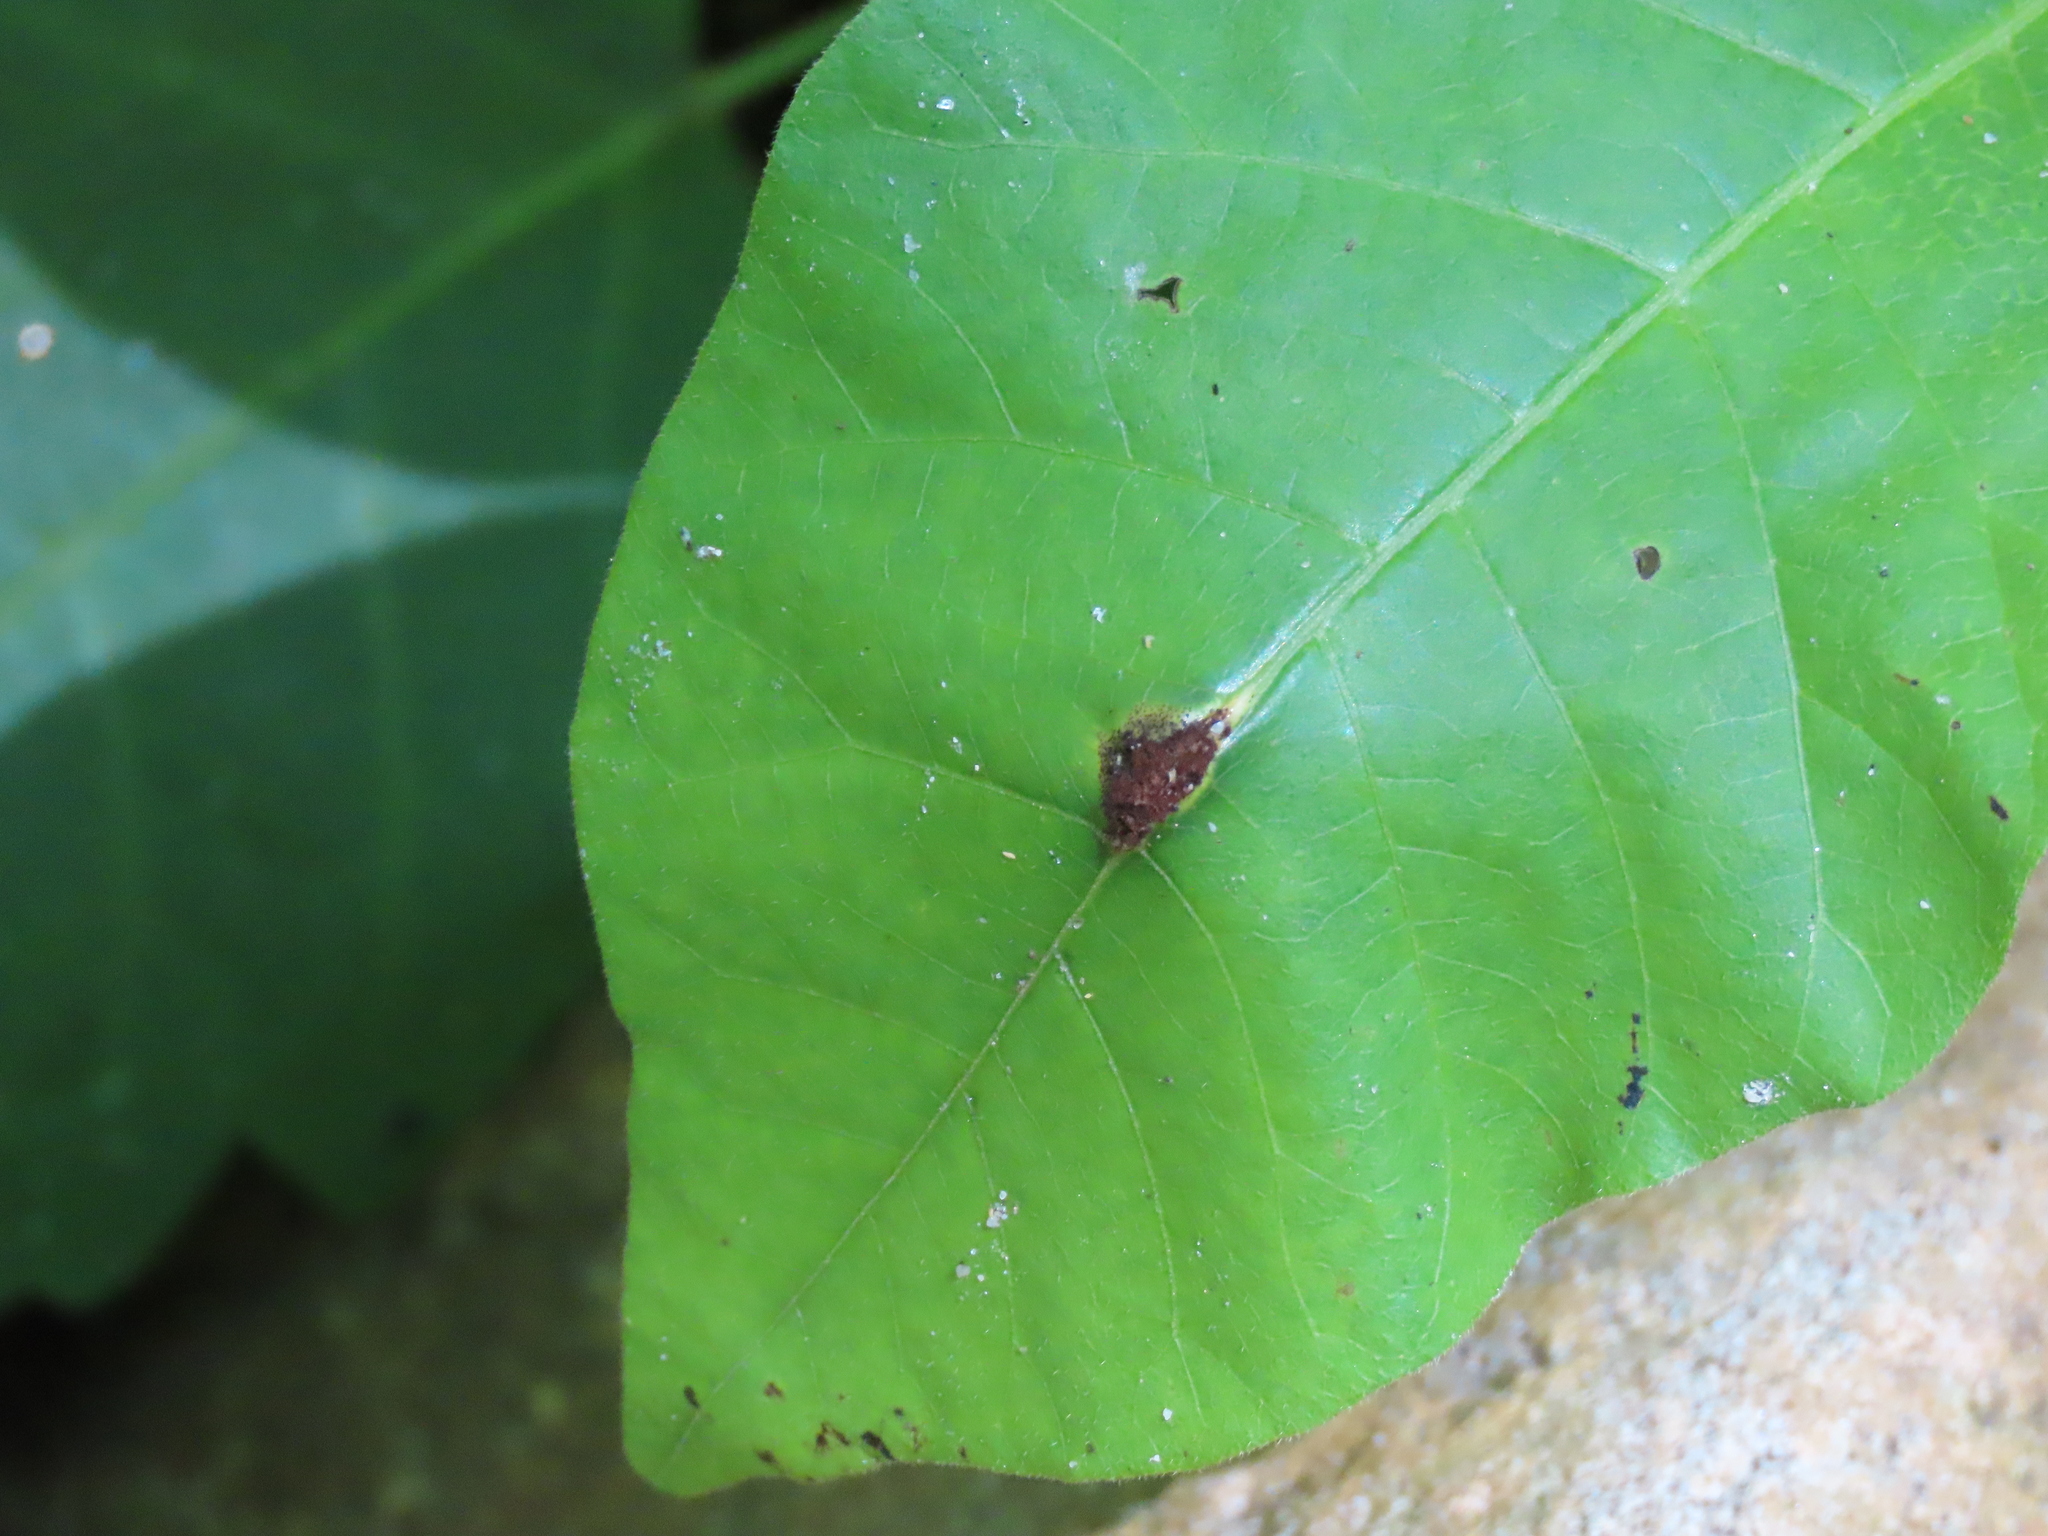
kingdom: Fungi
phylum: Basidiomycota
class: Pucciniomycetes
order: Pucciniales
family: Pileolariaceae
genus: Pileolaria
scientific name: Pileolaria brevipes
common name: Poison ivy rust
